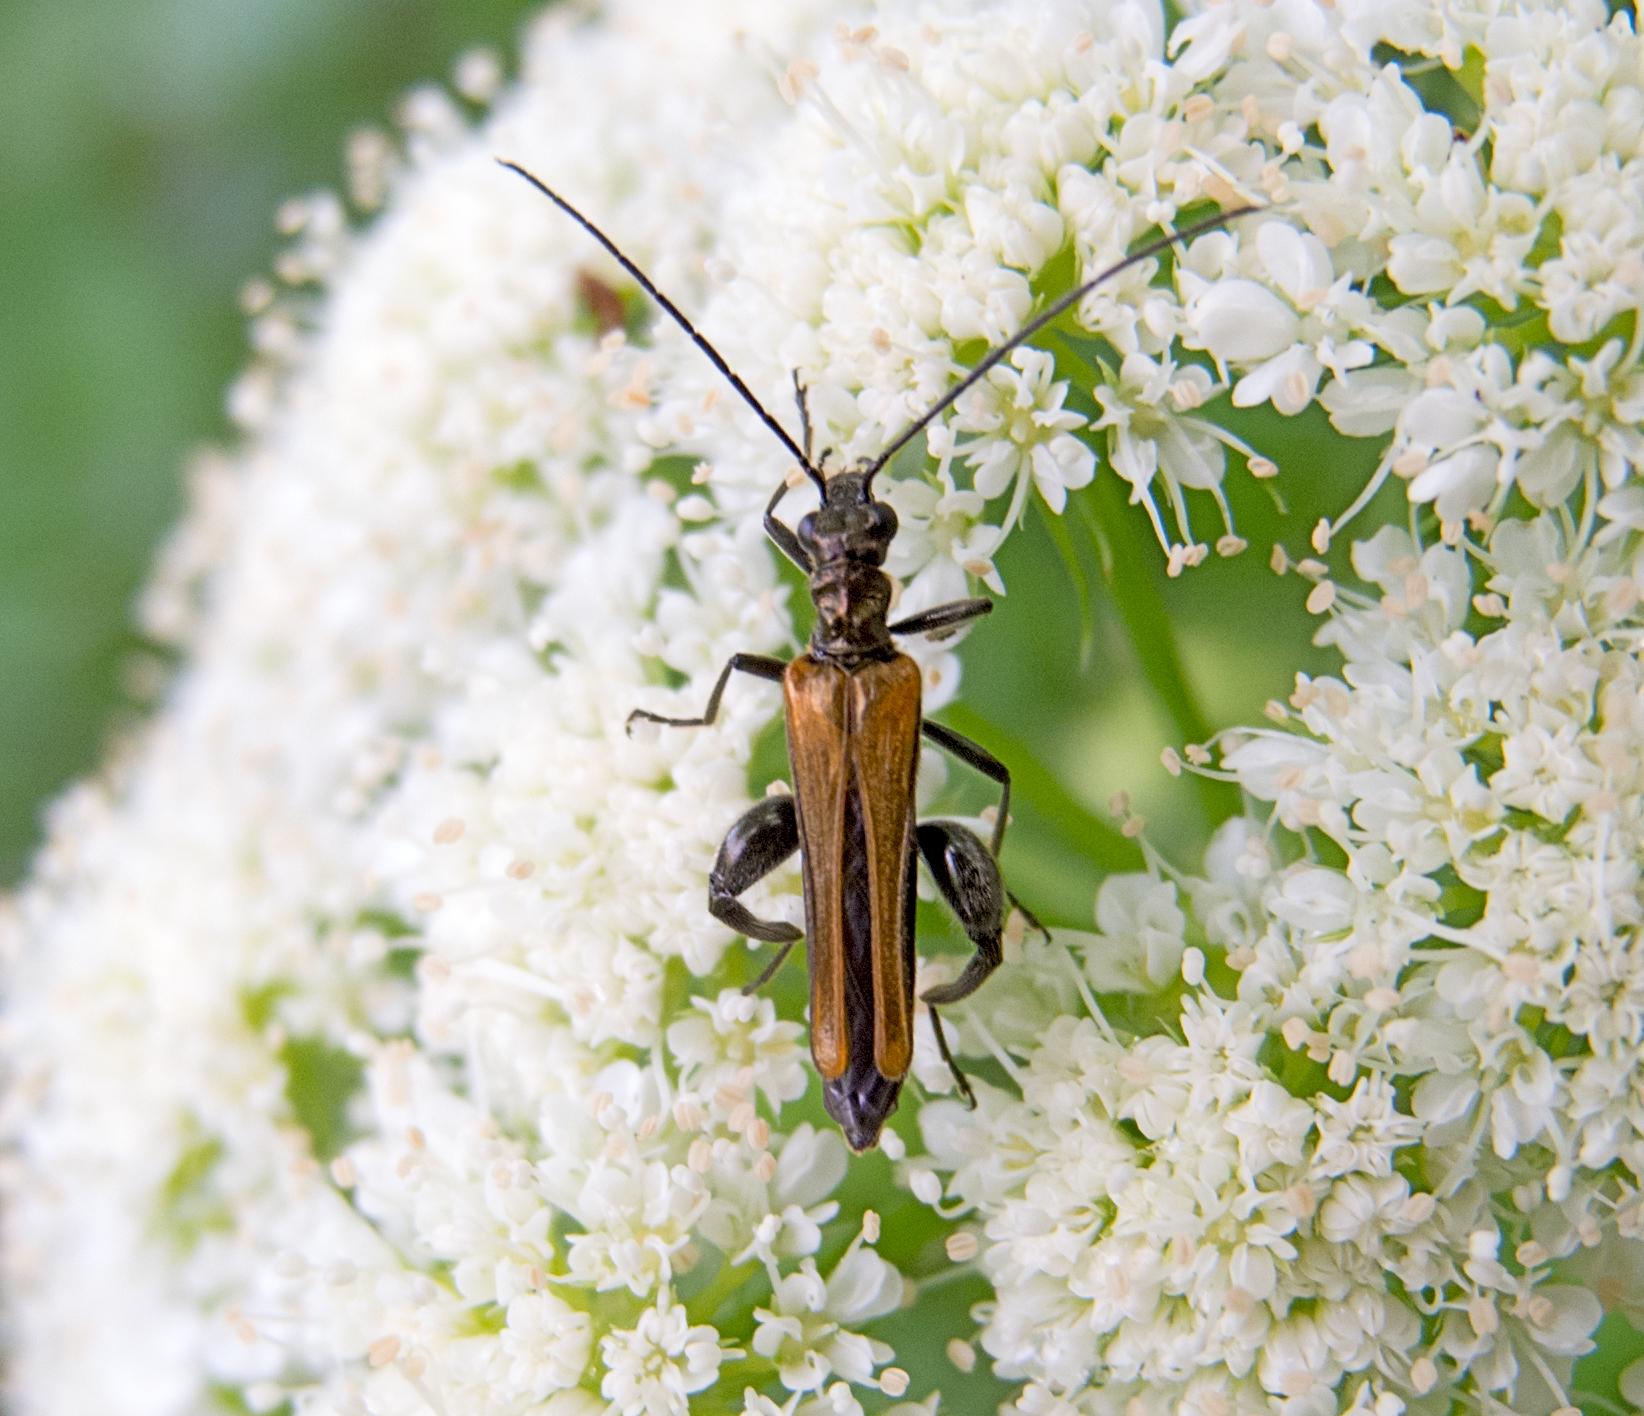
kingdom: Animalia
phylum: Arthropoda
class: Insecta
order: Coleoptera
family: Oedemeridae
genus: Oedemera
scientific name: Oedemera femorata
